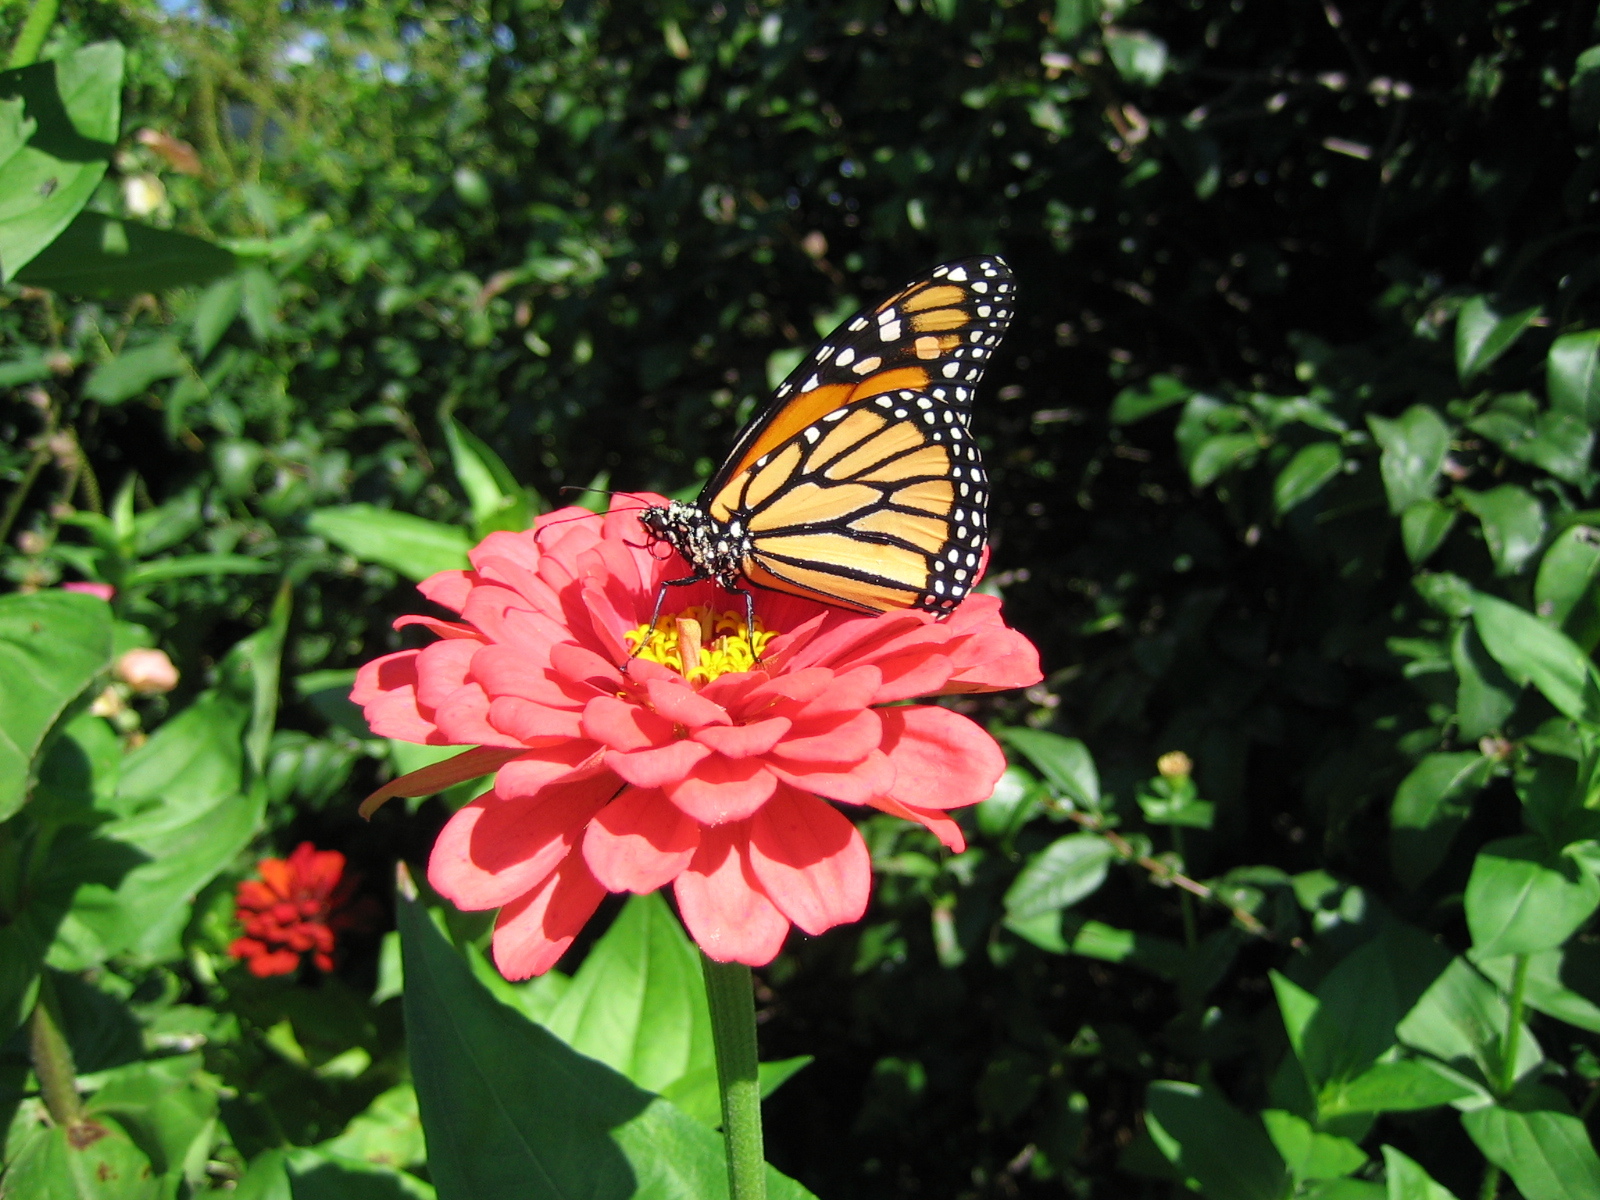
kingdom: Animalia
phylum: Arthropoda
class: Insecta
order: Lepidoptera
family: Nymphalidae
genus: Danaus
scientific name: Danaus plexippus
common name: Monarch
